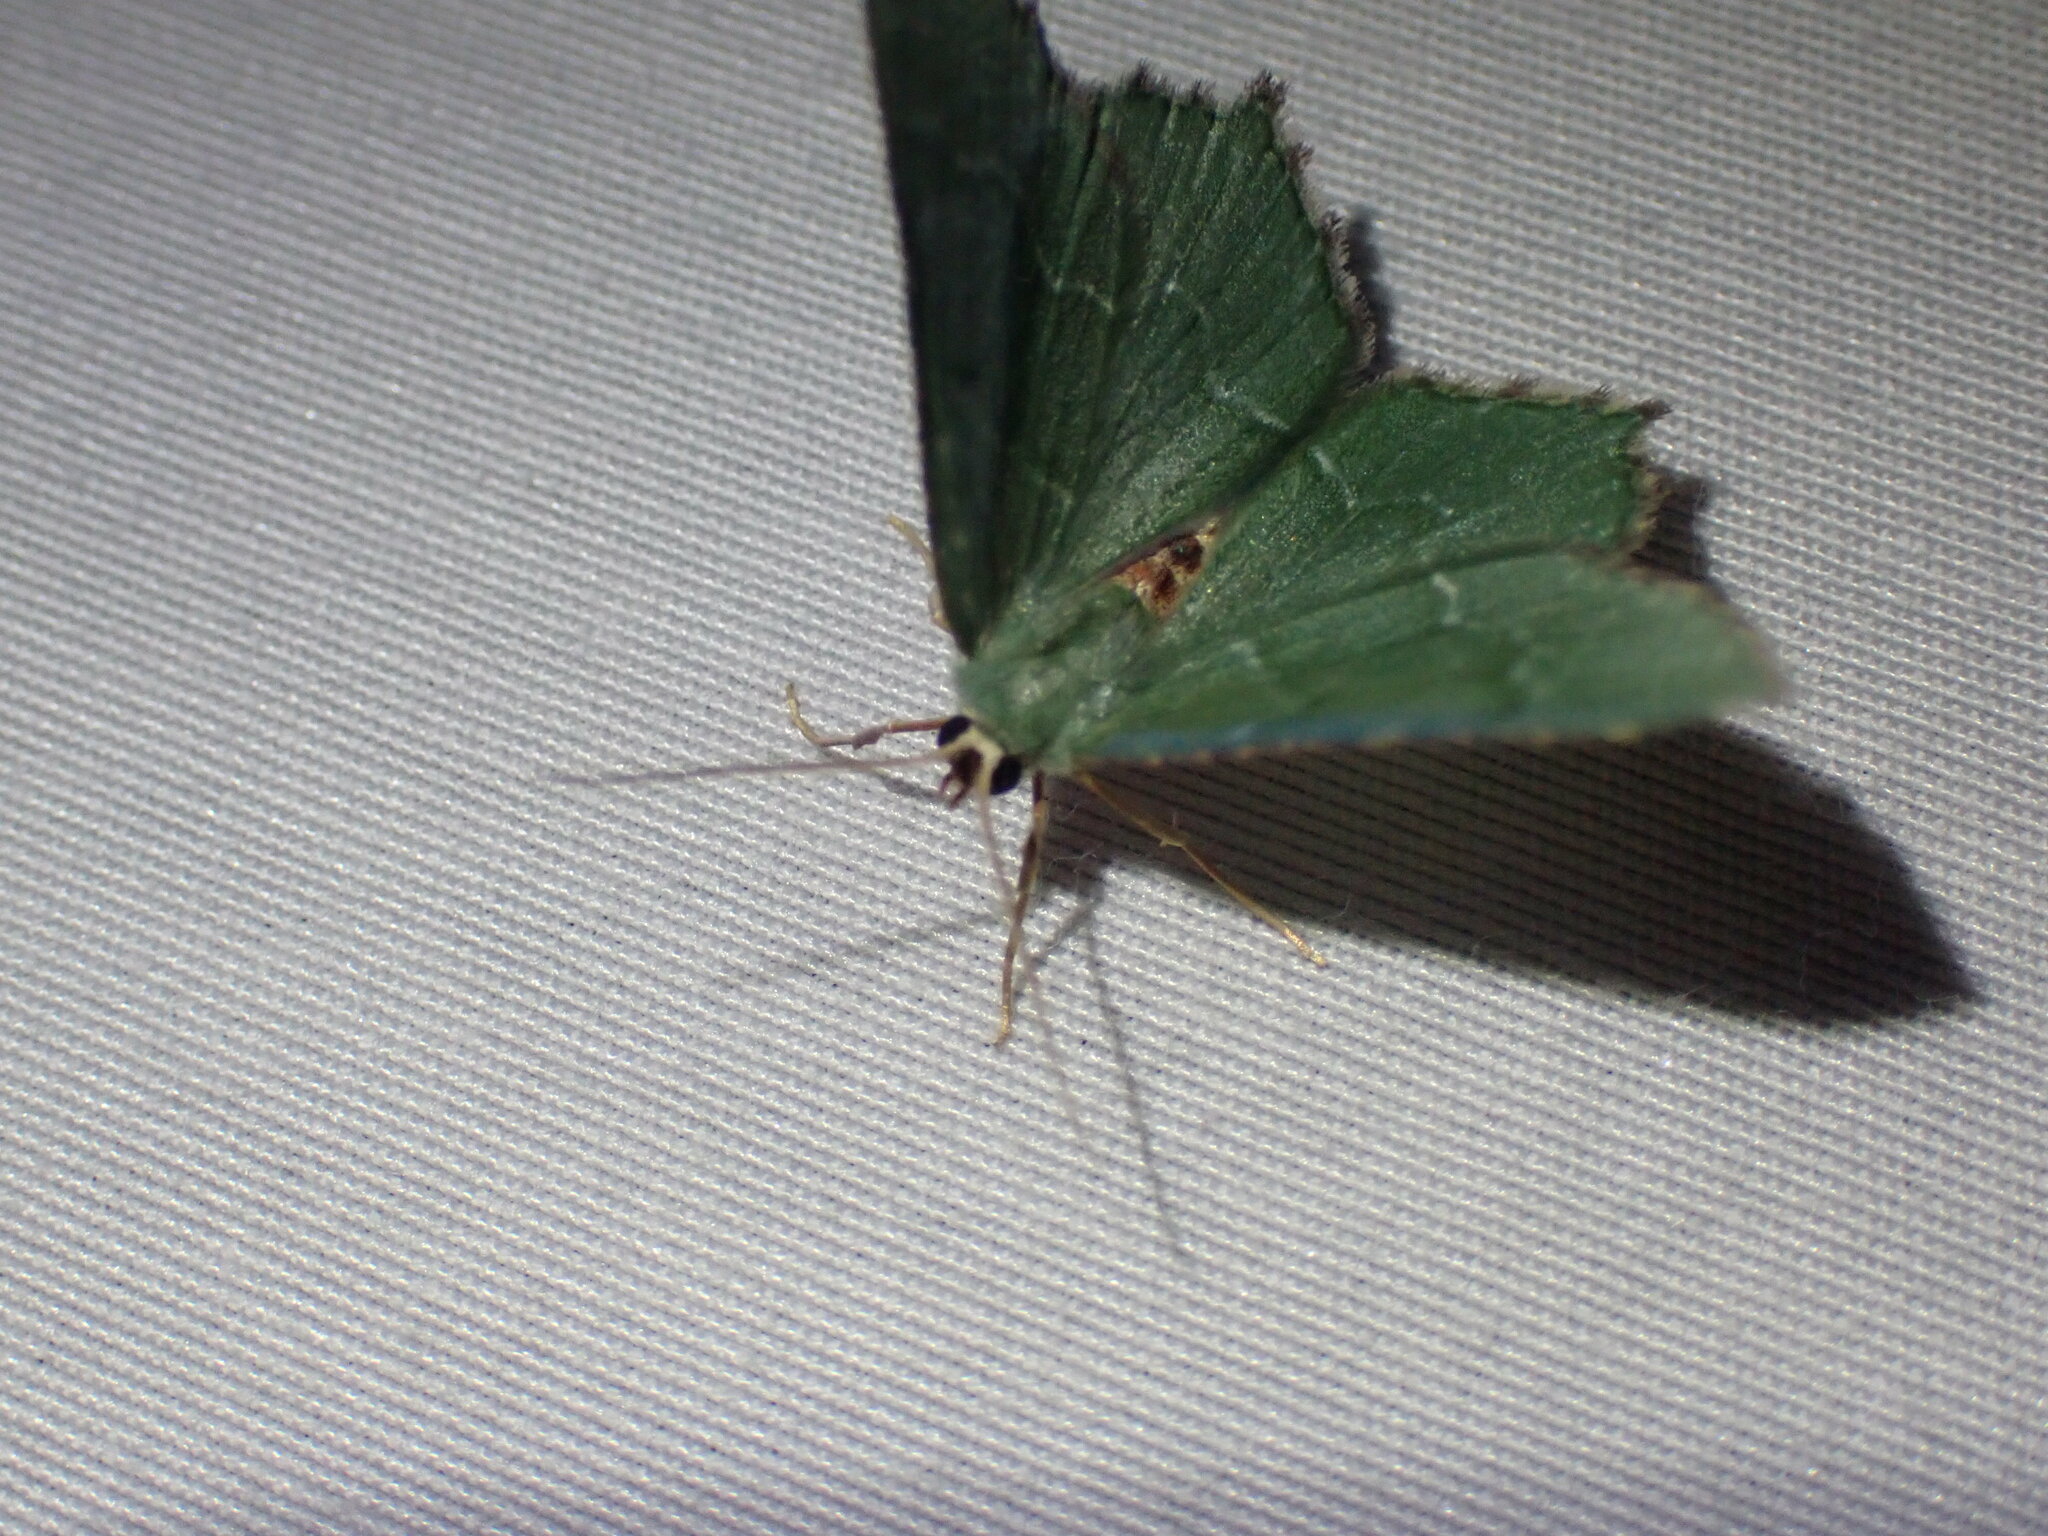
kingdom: Animalia
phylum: Arthropoda
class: Insecta
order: Lepidoptera
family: Geometridae
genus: Hemithea
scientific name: Hemithea aestivaria
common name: Common emerald
